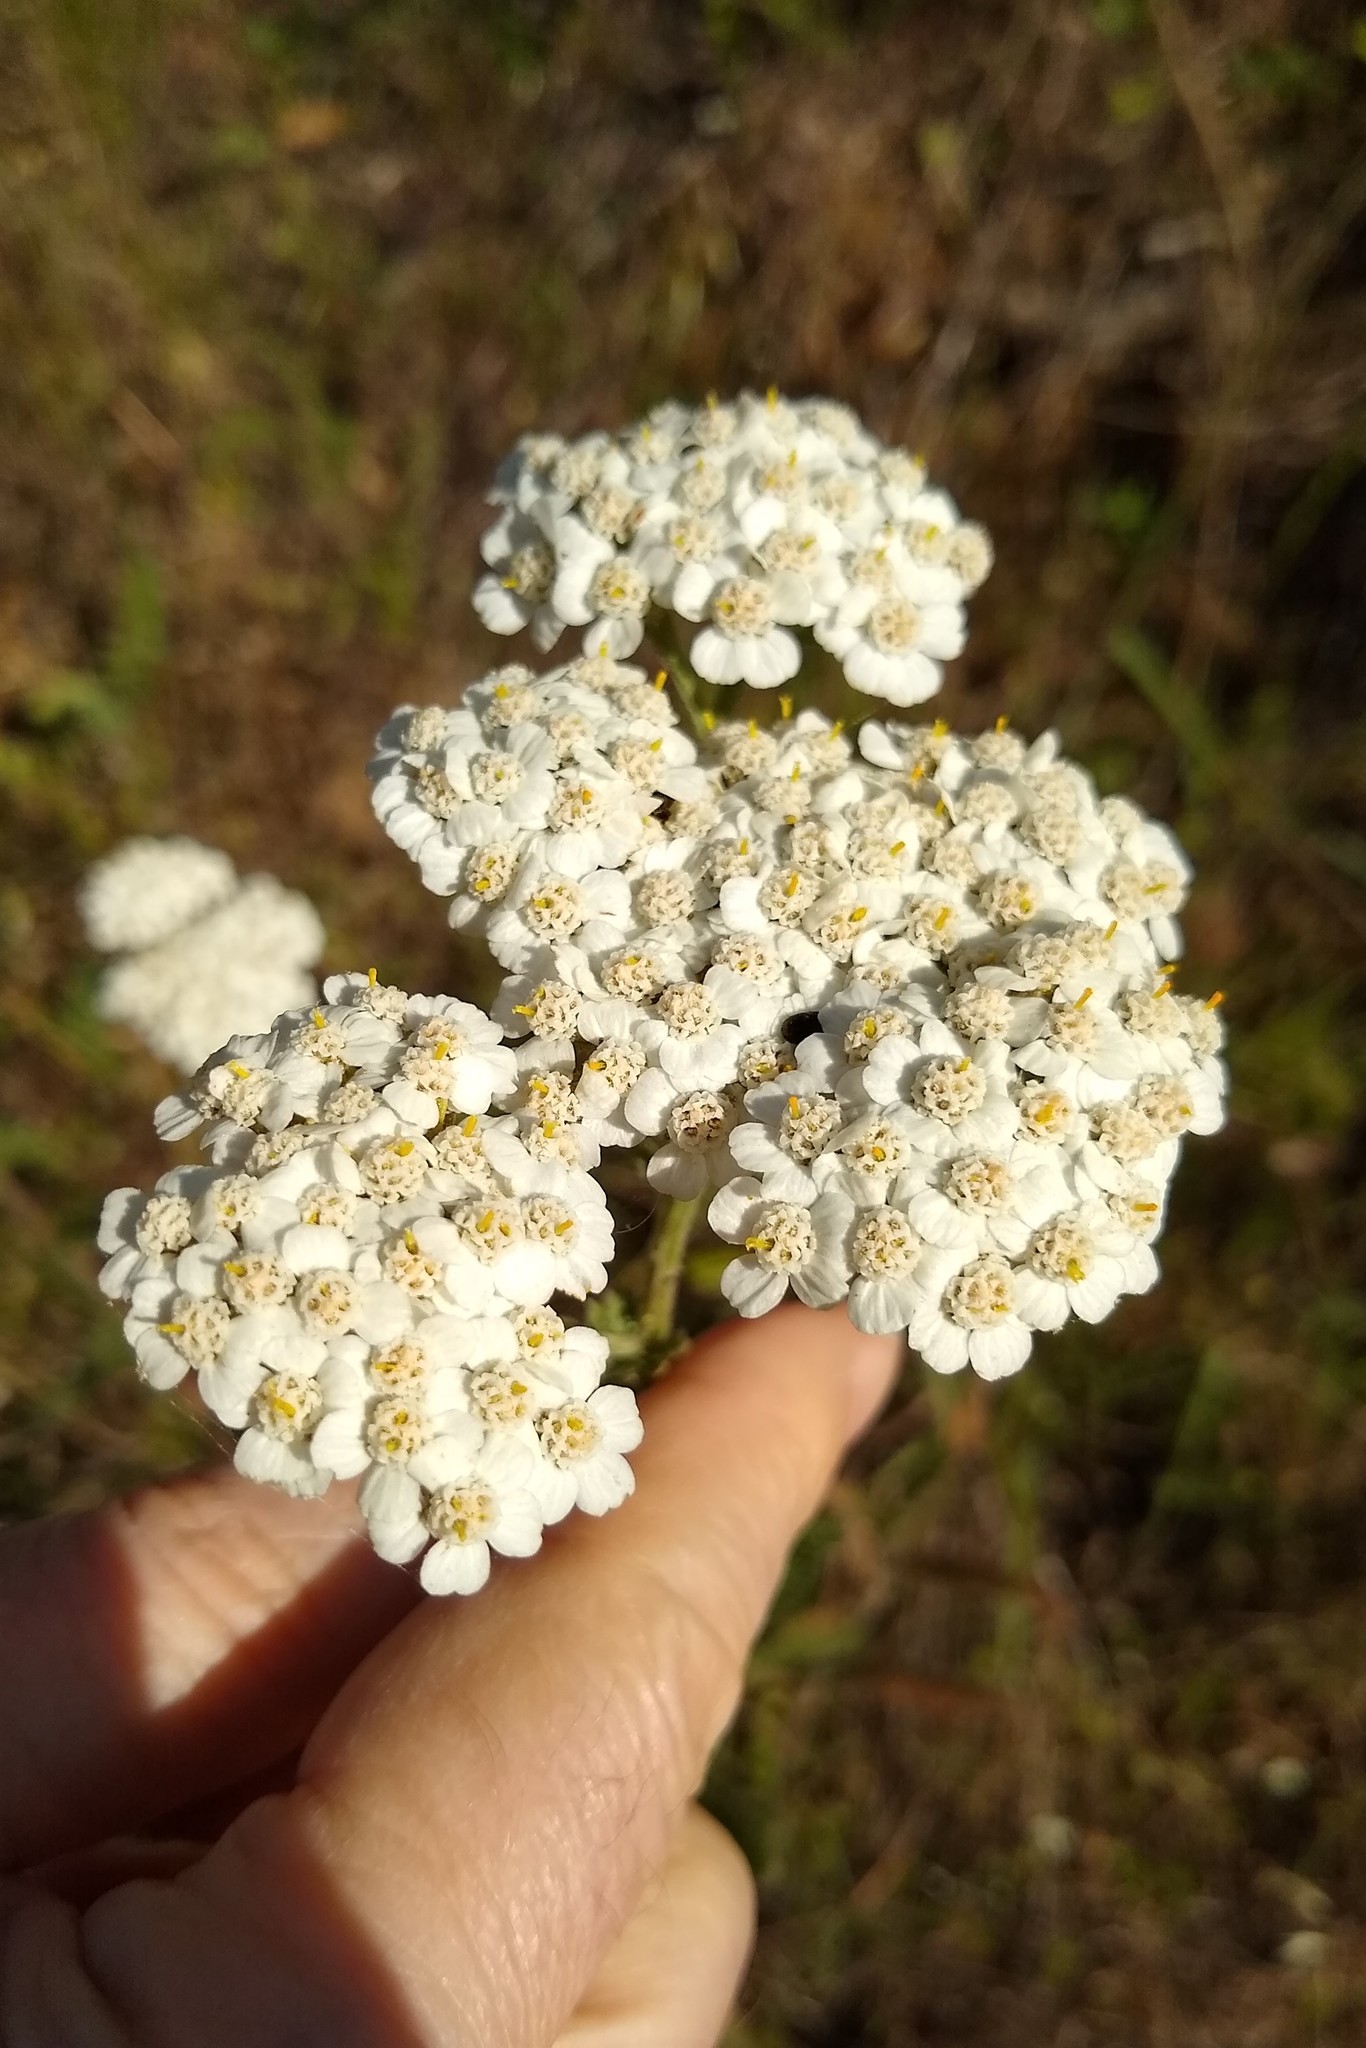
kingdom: Plantae
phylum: Tracheophyta
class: Magnoliopsida
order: Asterales
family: Asteraceae
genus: Achillea
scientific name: Achillea millefolium
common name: Yarrow
